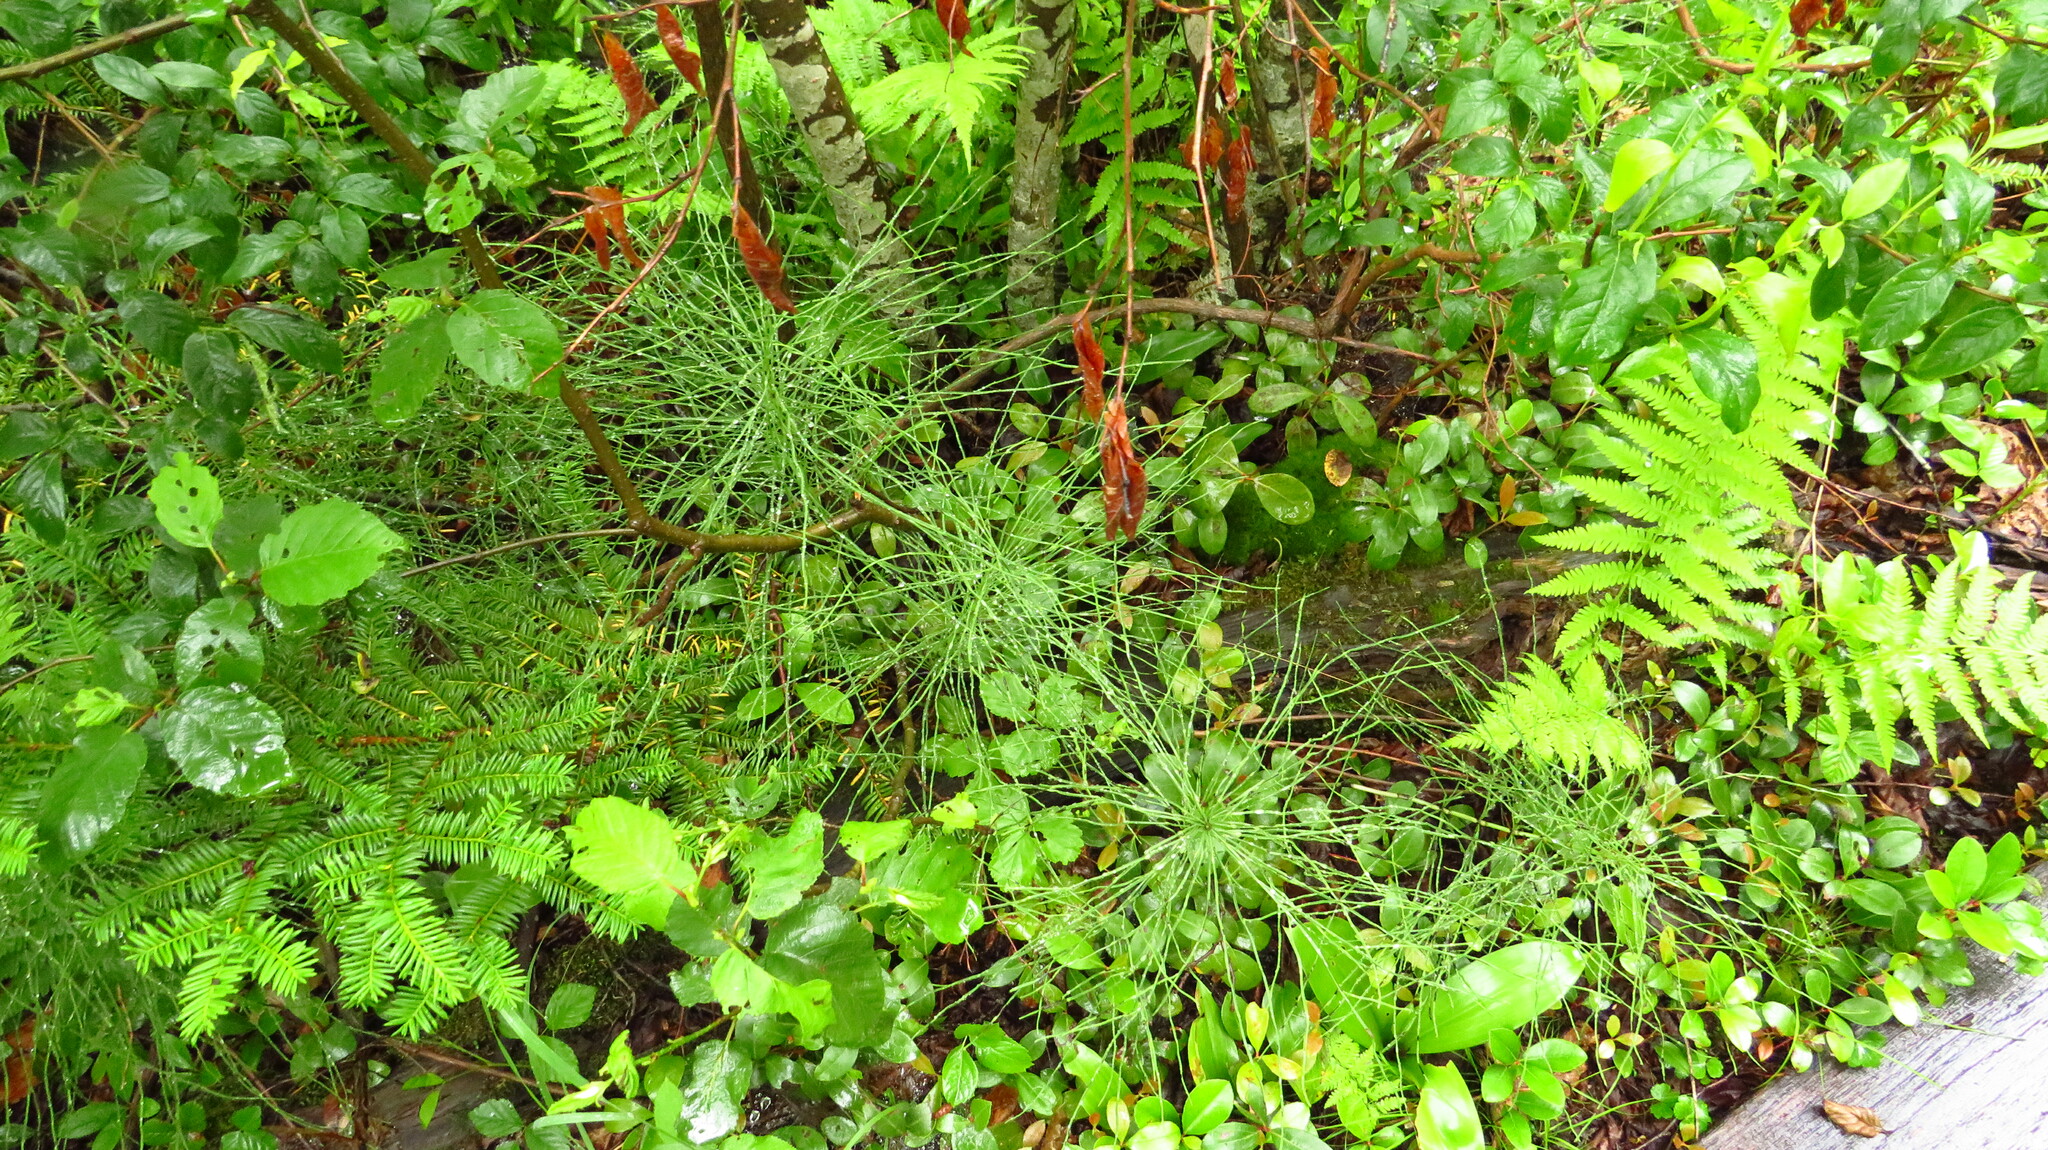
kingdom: Plantae
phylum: Tracheophyta
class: Polypodiopsida
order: Equisetales
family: Equisetaceae
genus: Equisetum
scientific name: Equisetum pratense
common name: Meadow horsetail
